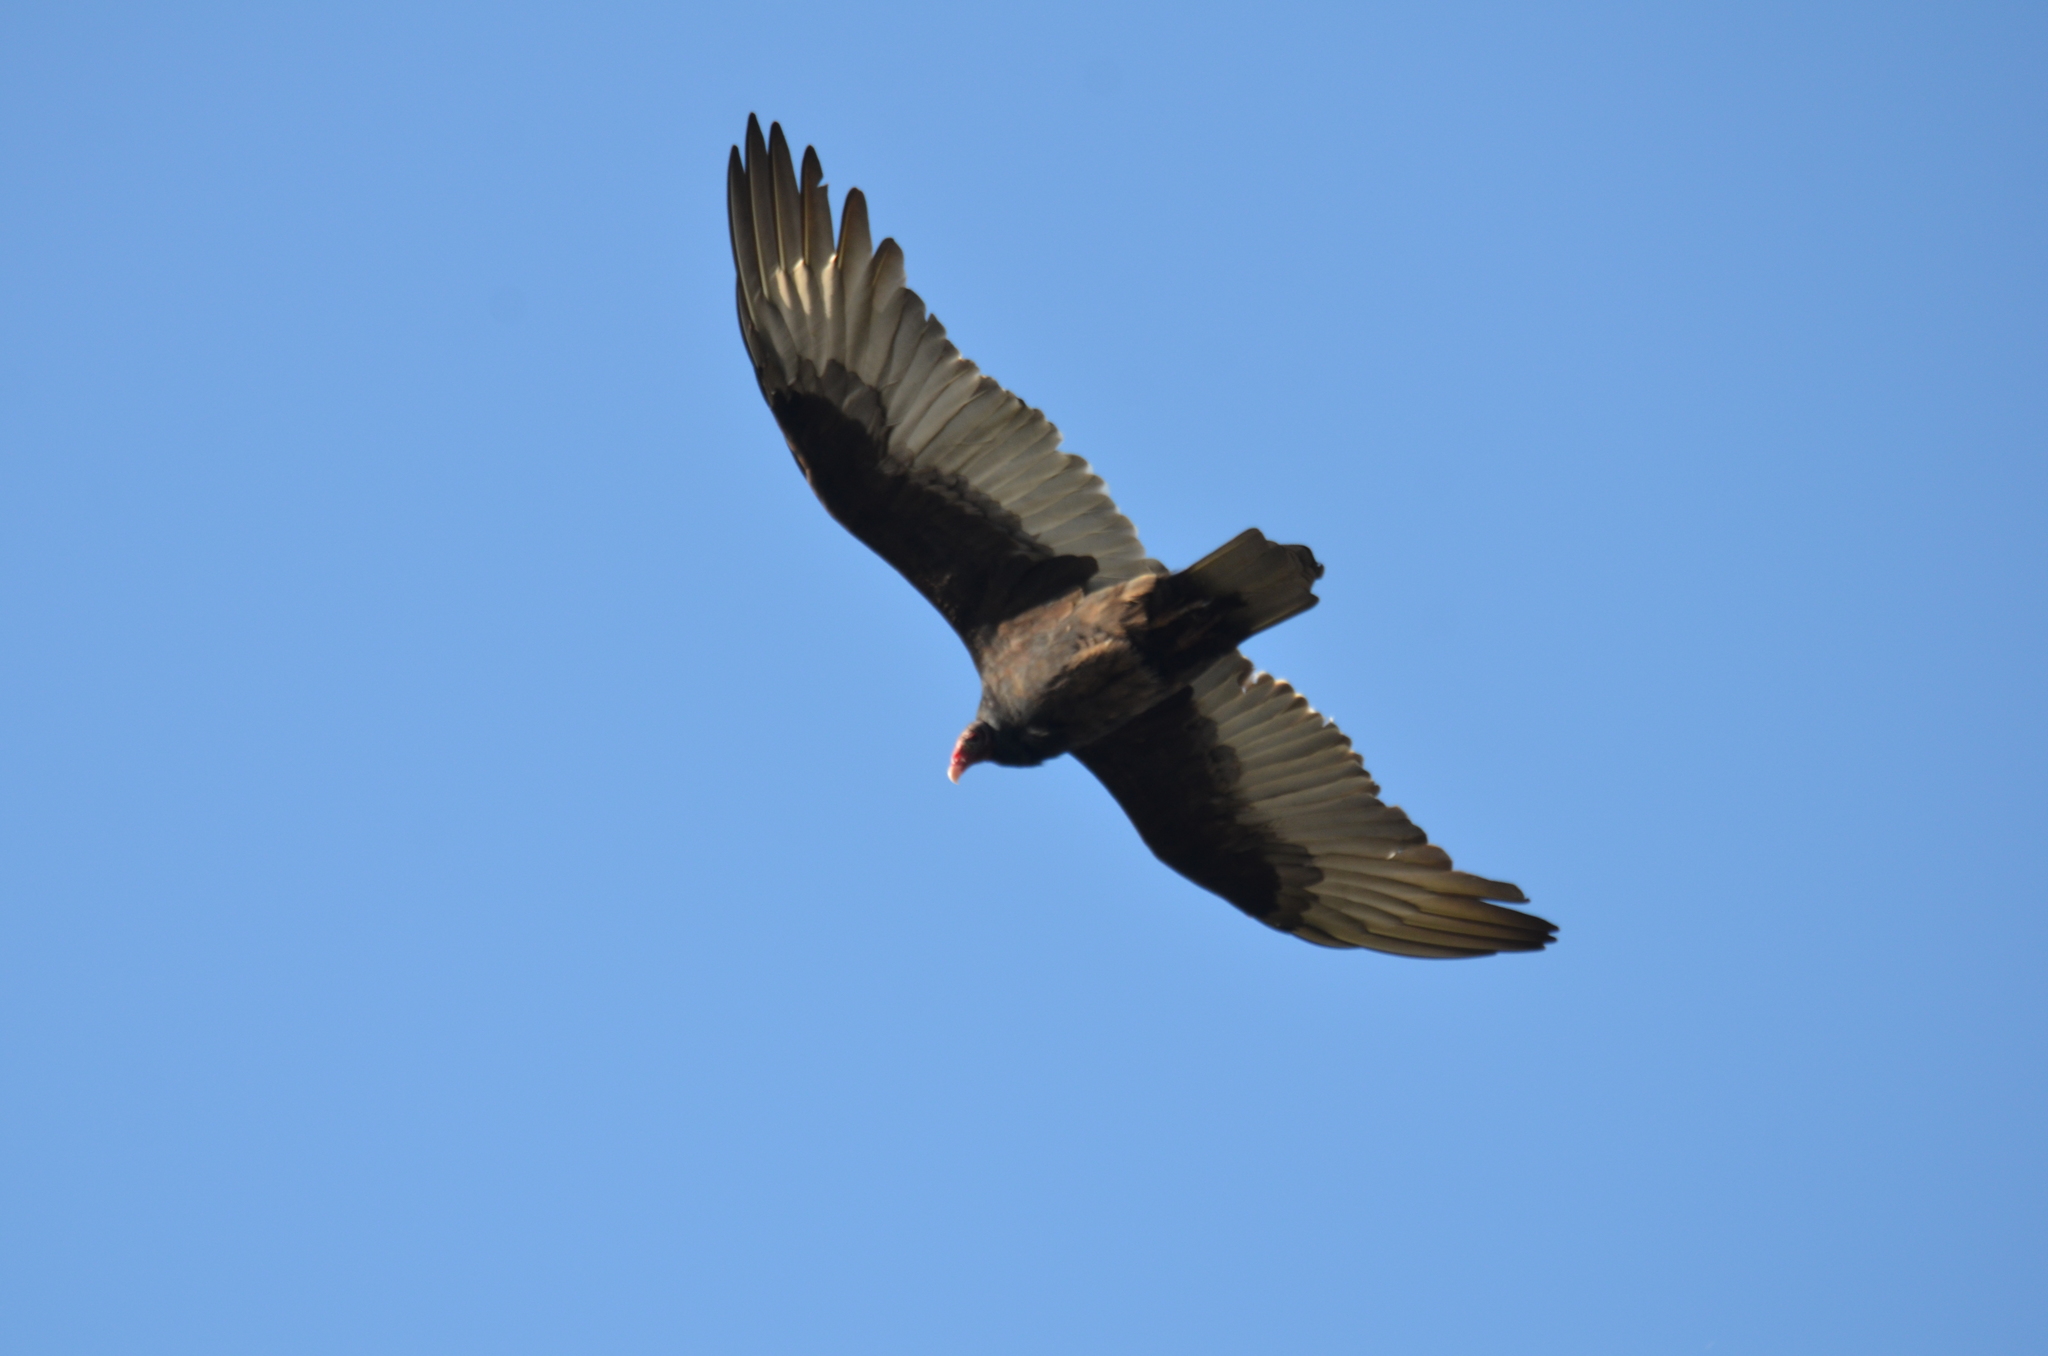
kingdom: Animalia
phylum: Chordata
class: Aves
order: Accipitriformes
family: Cathartidae
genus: Cathartes
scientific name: Cathartes aura
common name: Turkey vulture
